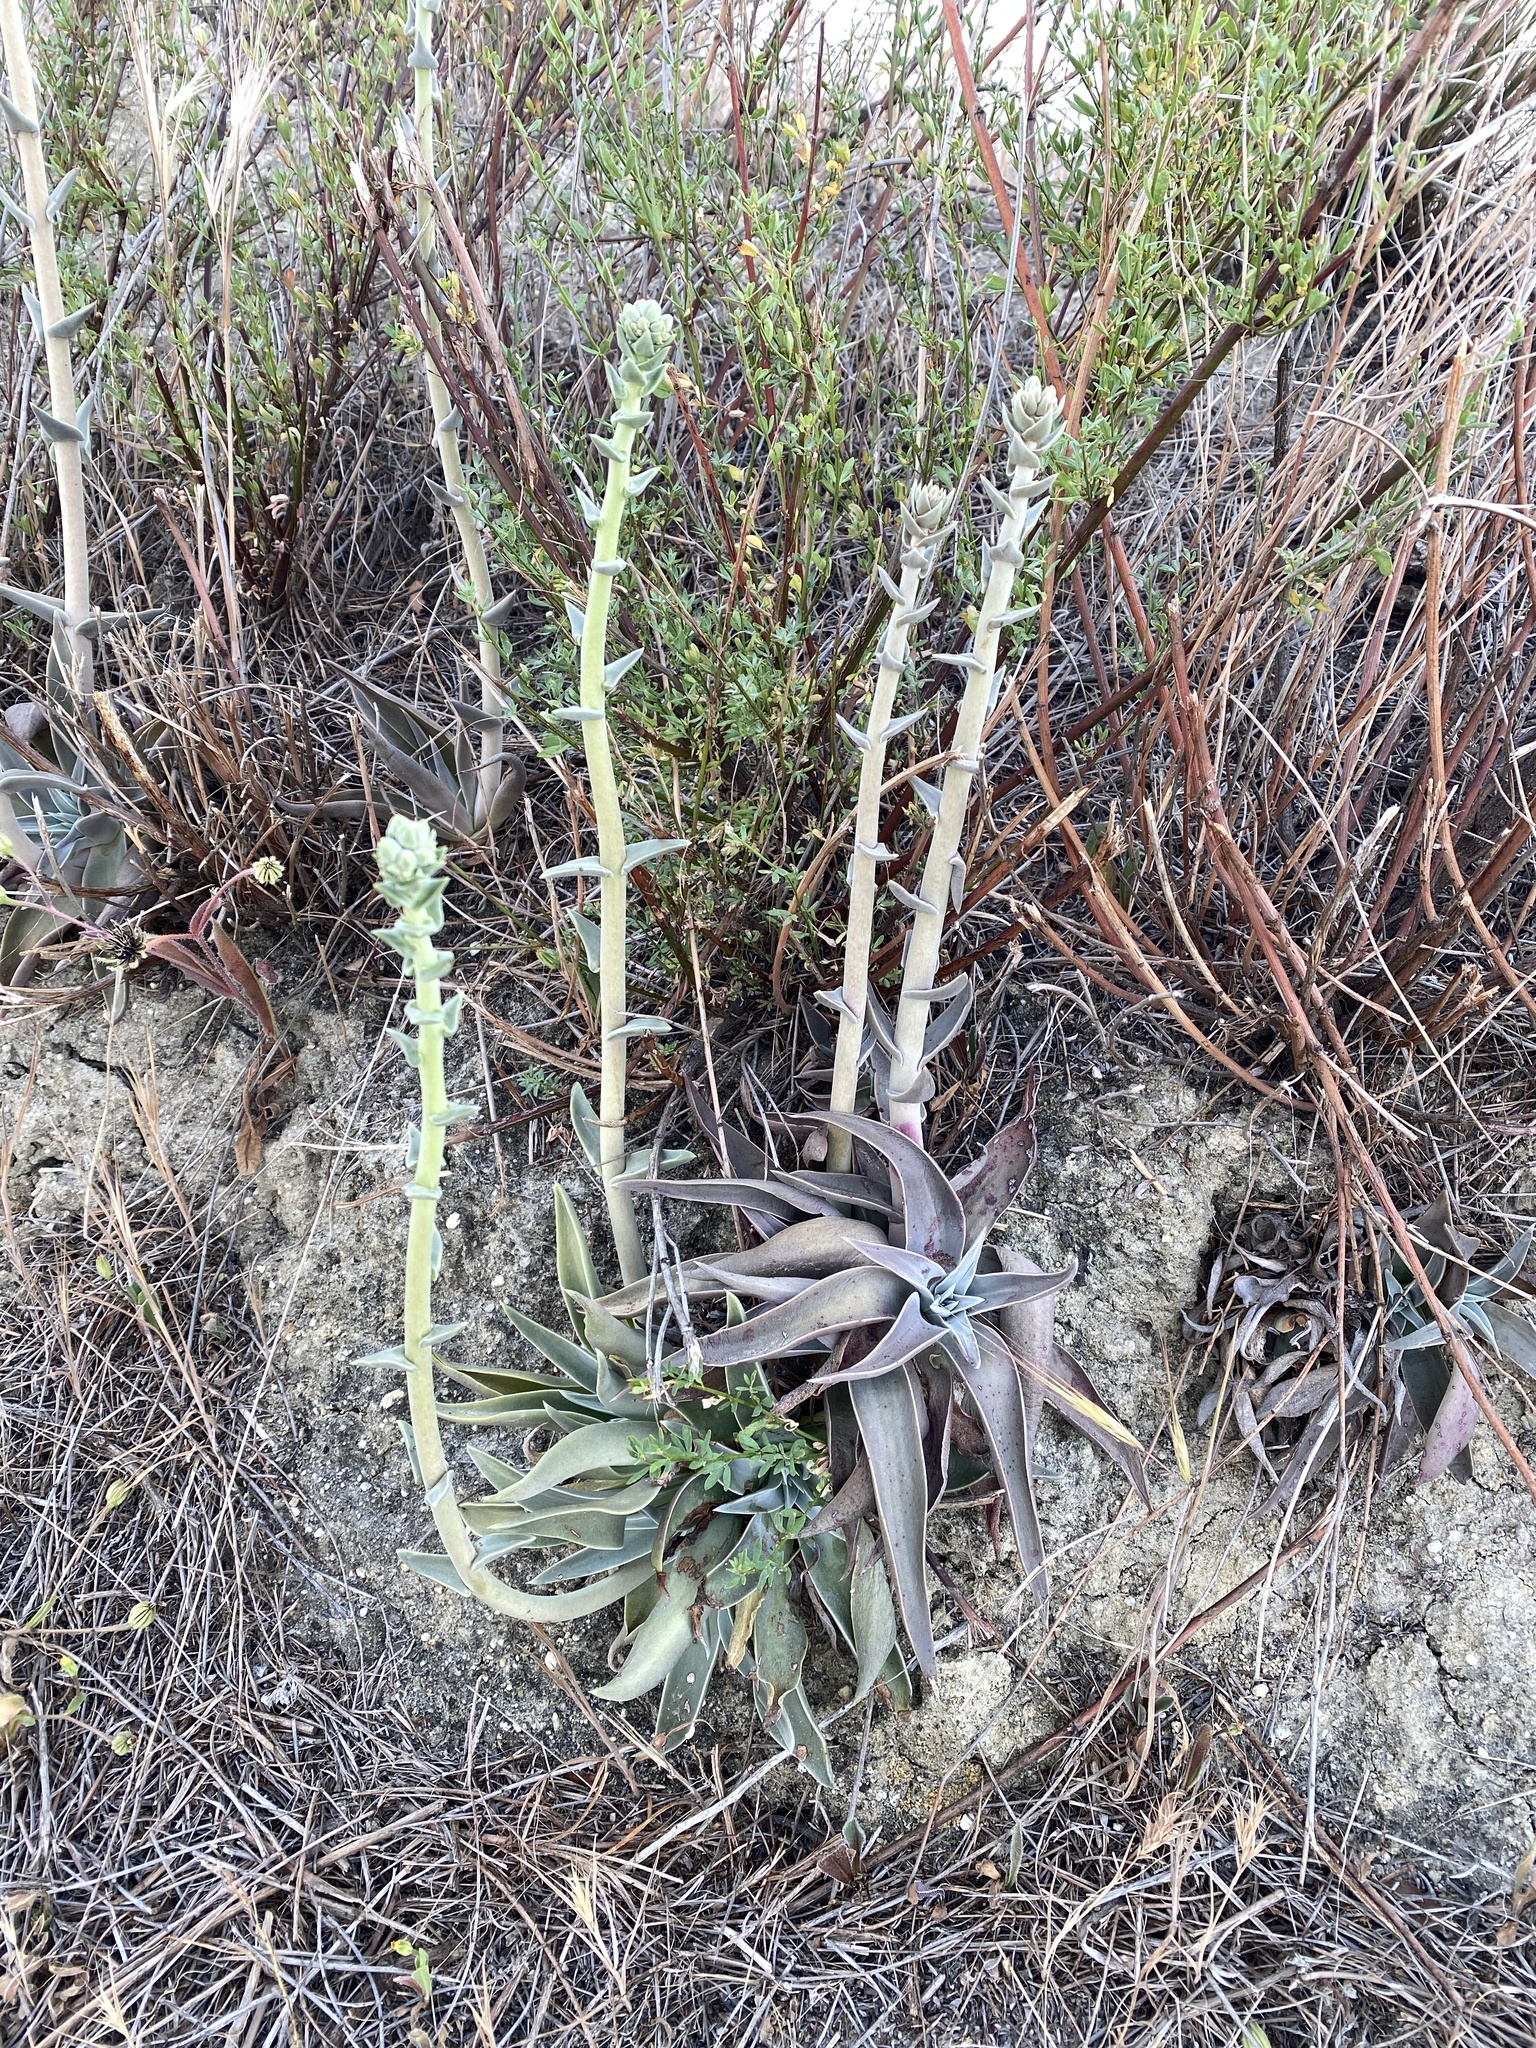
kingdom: Plantae
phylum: Tracheophyta
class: Magnoliopsida
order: Saxifragales
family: Crassulaceae
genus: Dudleya
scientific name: Dudleya lanceolata
